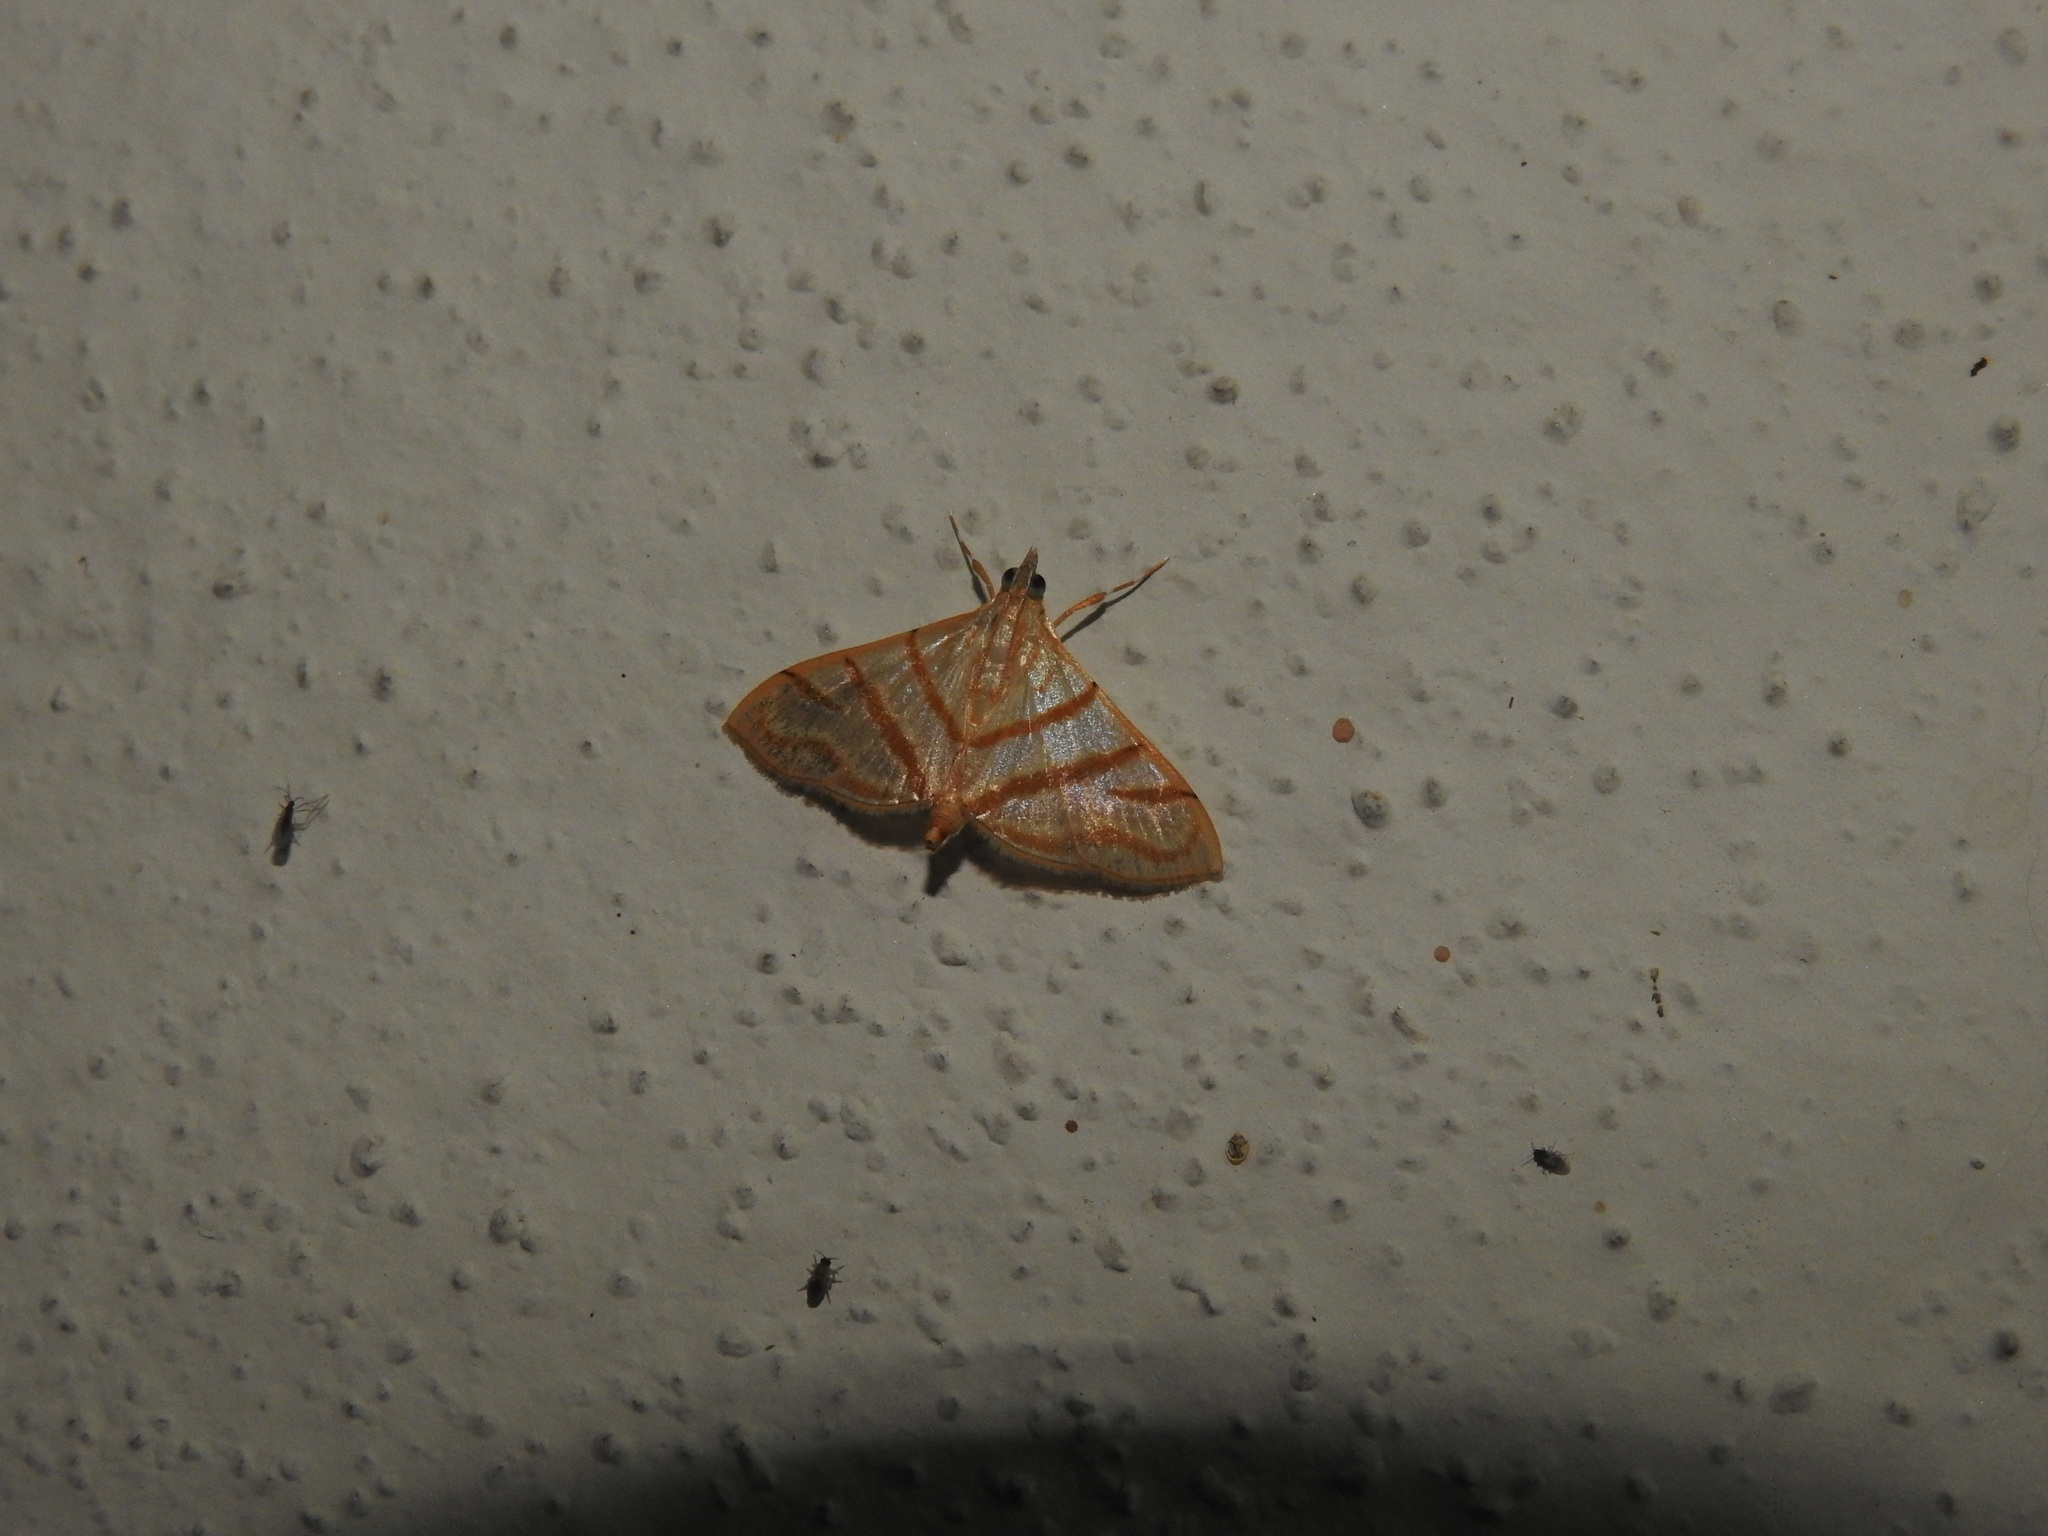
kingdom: Animalia
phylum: Arthropoda
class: Insecta
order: Lepidoptera
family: Crambidae
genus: Pagyda
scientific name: Pagyda salvalis
